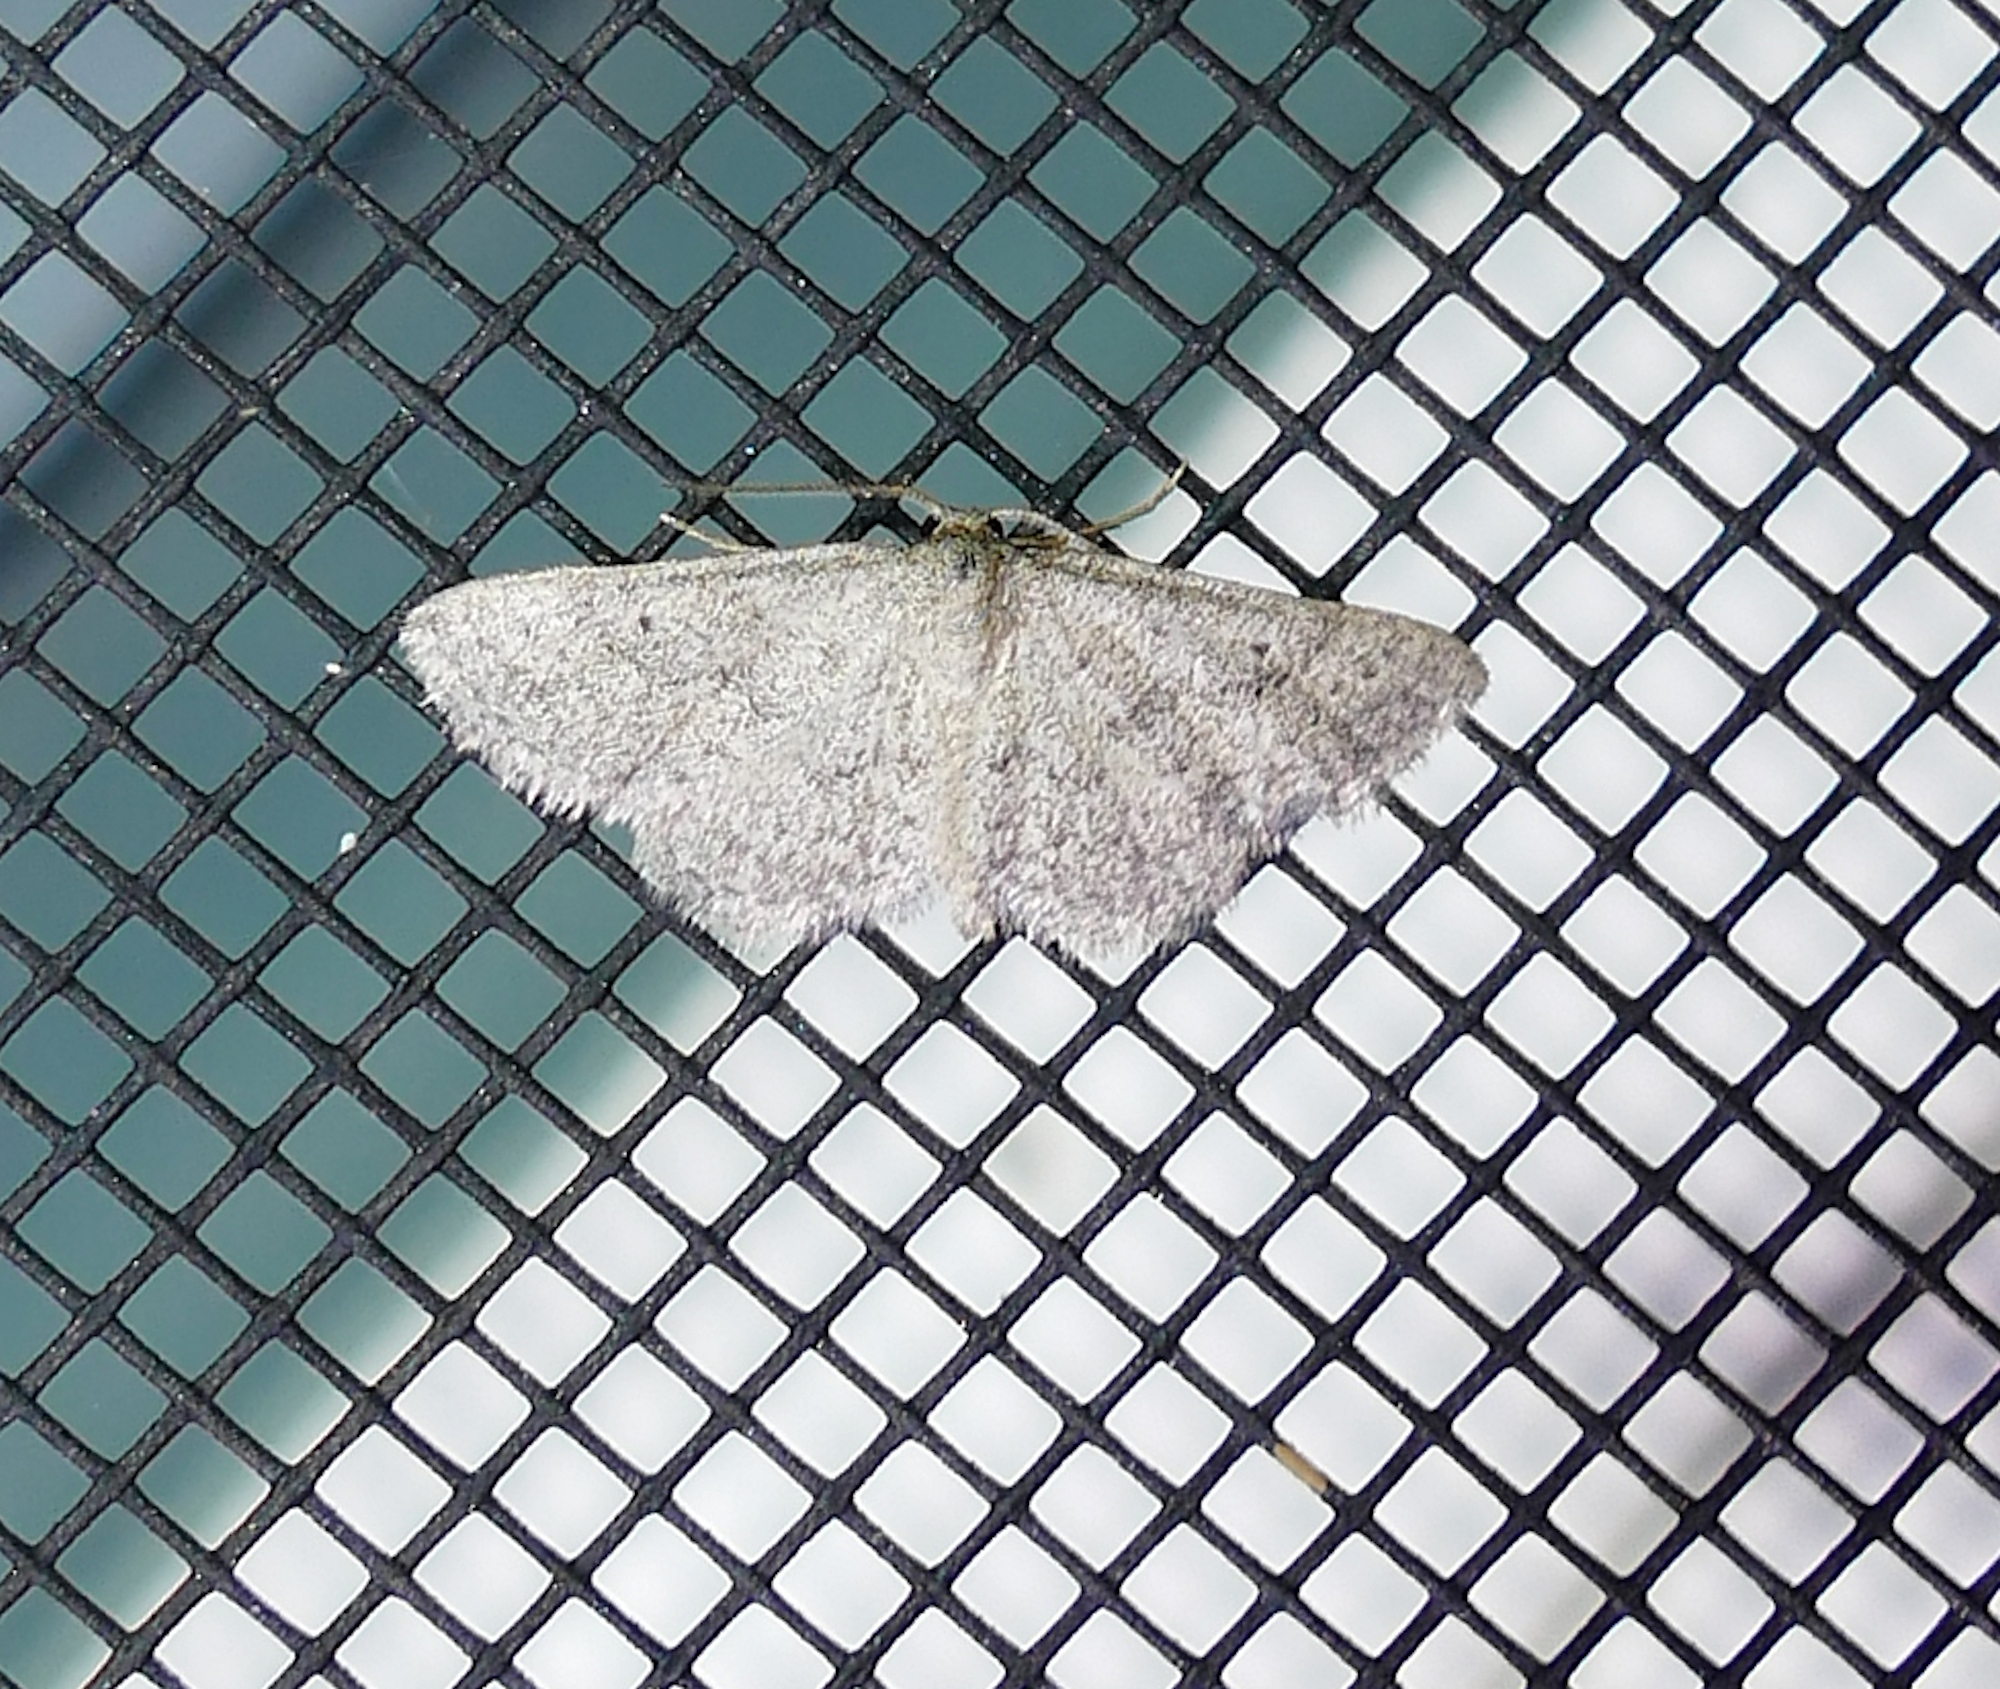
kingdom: Animalia
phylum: Arthropoda
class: Insecta
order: Lepidoptera
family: Geometridae
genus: Lobocleta
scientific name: Lobocleta ossularia
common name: Drab brown wave
